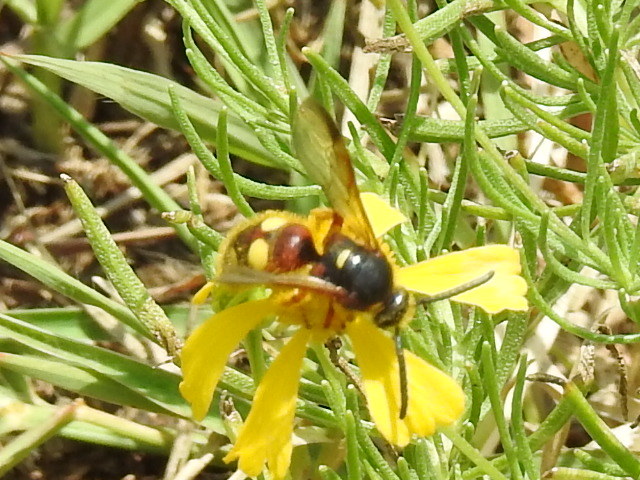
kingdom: Animalia
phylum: Arthropoda
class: Insecta
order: Hymenoptera
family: Scoliidae
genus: Scolia
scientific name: Scolia nobilitata
